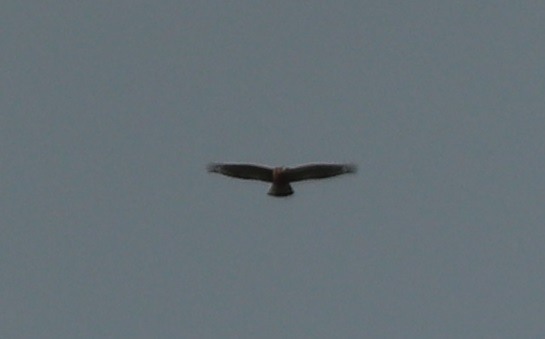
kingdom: Animalia
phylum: Chordata
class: Aves
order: Accipitriformes
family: Accipitridae
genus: Buteo
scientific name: Buteo lineatus
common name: Red-shouldered hawk
